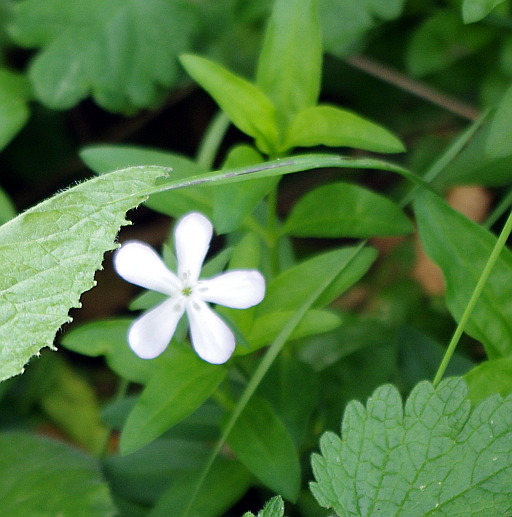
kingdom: Plantae
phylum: Tracheophyta
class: Magnoliopsida
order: Caryophyllales
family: Caryophyllaceae
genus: Saponaria
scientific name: Saponaria officinalis
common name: Soapwort
